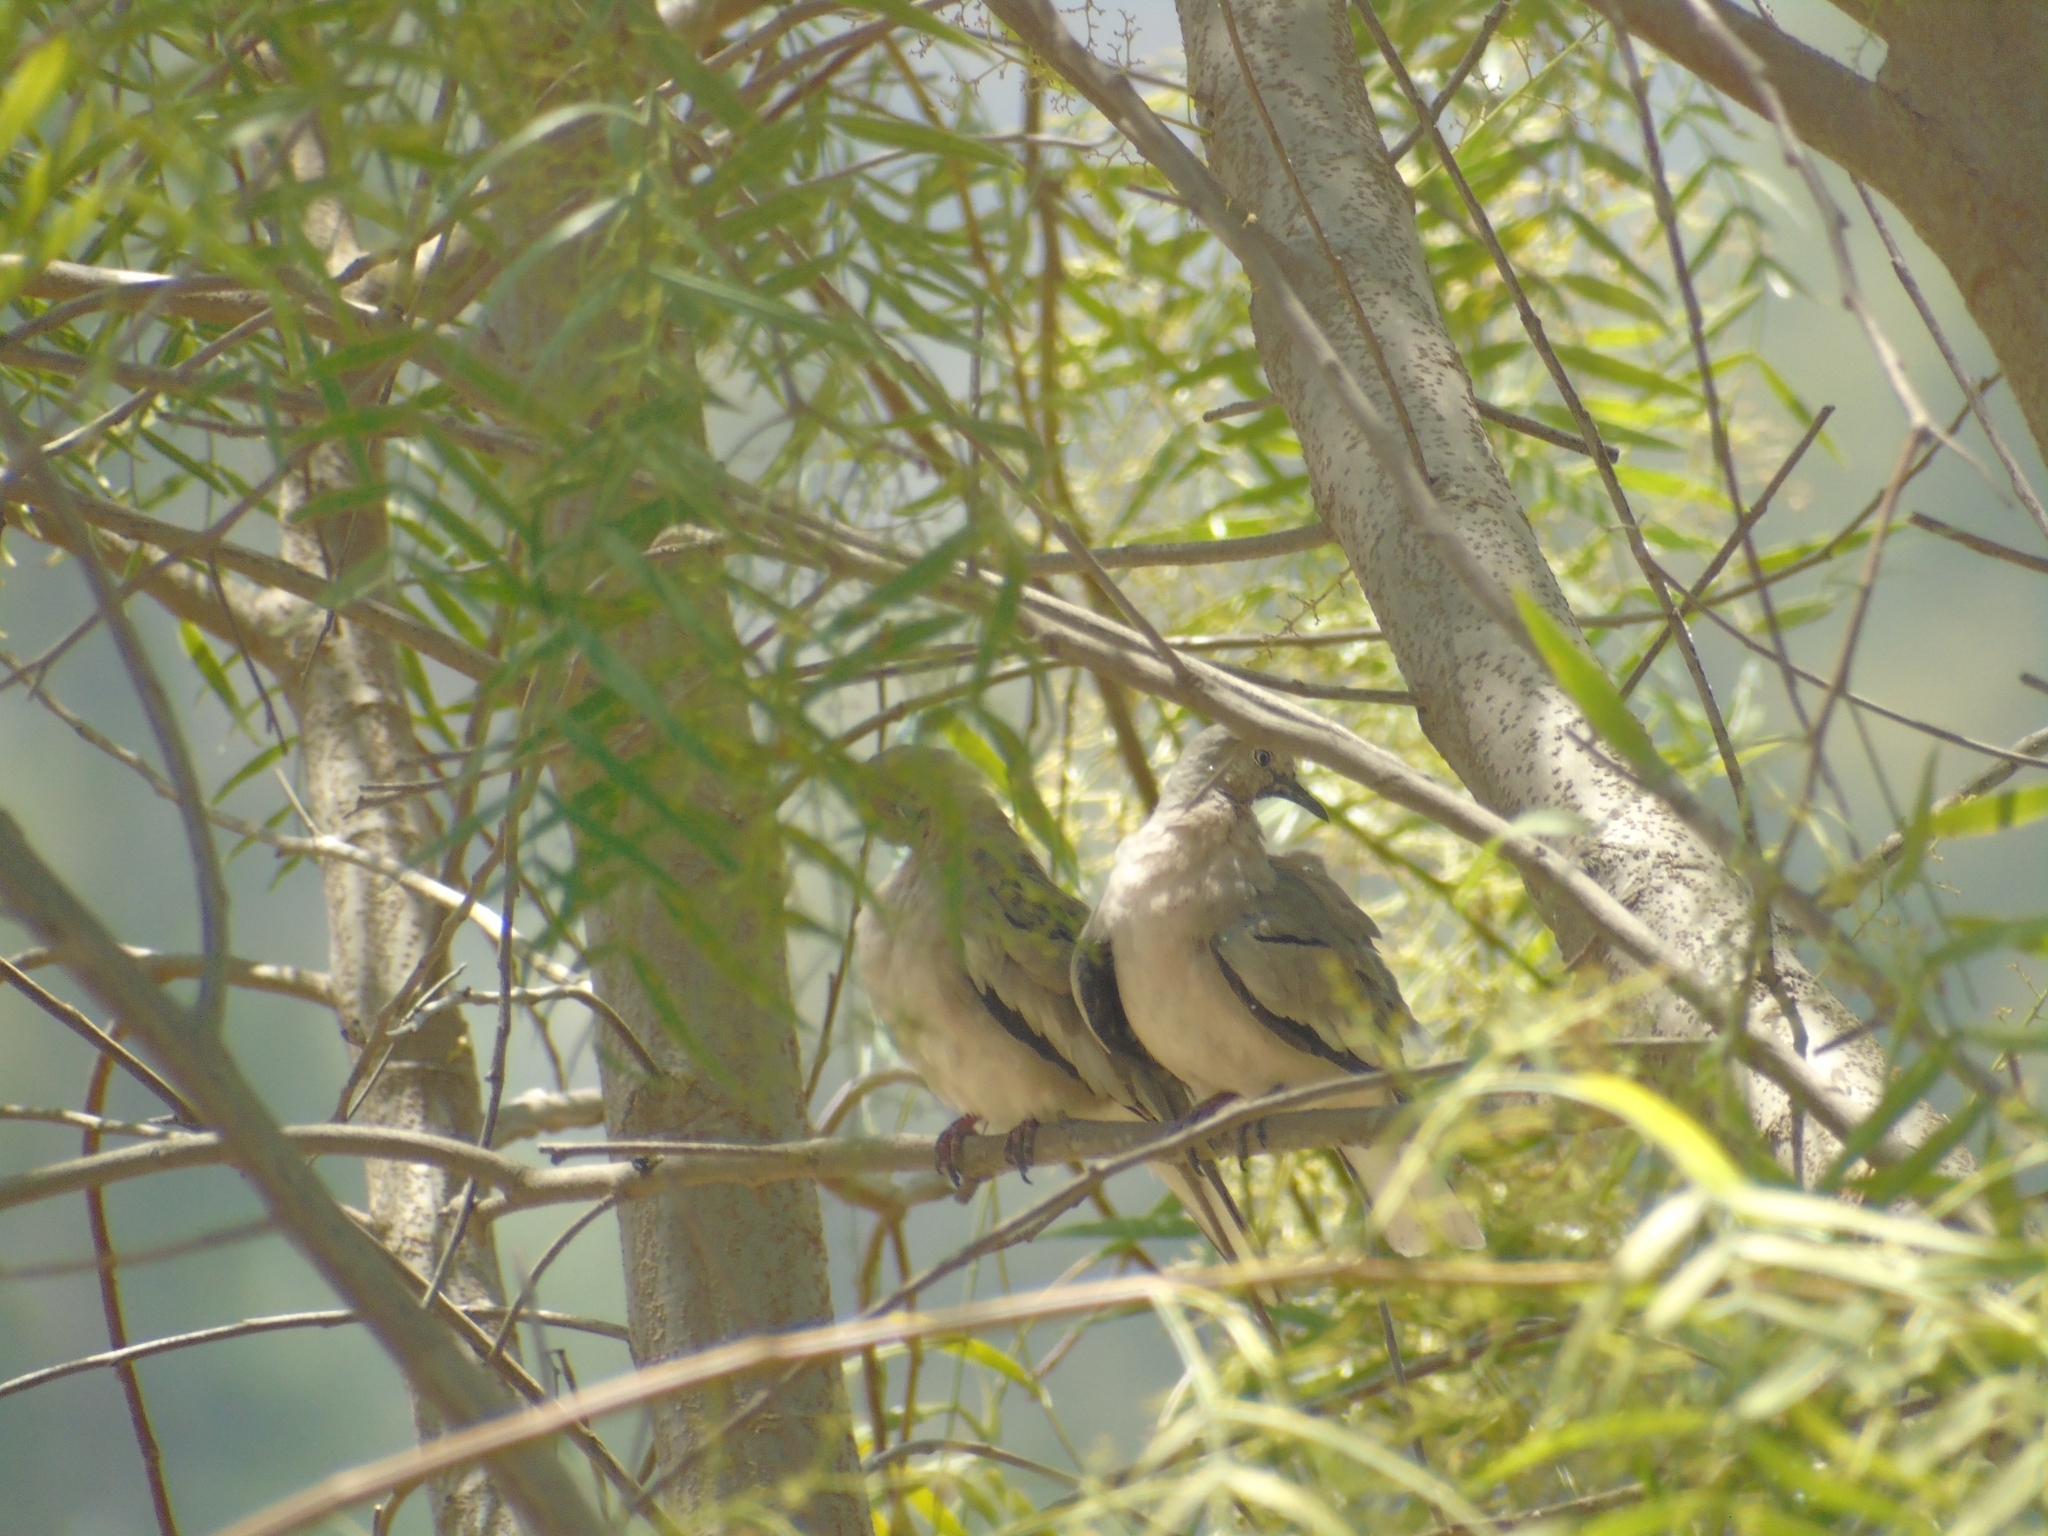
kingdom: Animalia
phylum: Chordata
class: Aves
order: Columbiformes
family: Columbidae
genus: Columbina
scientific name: Columbina picui
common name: Picui ground dove
